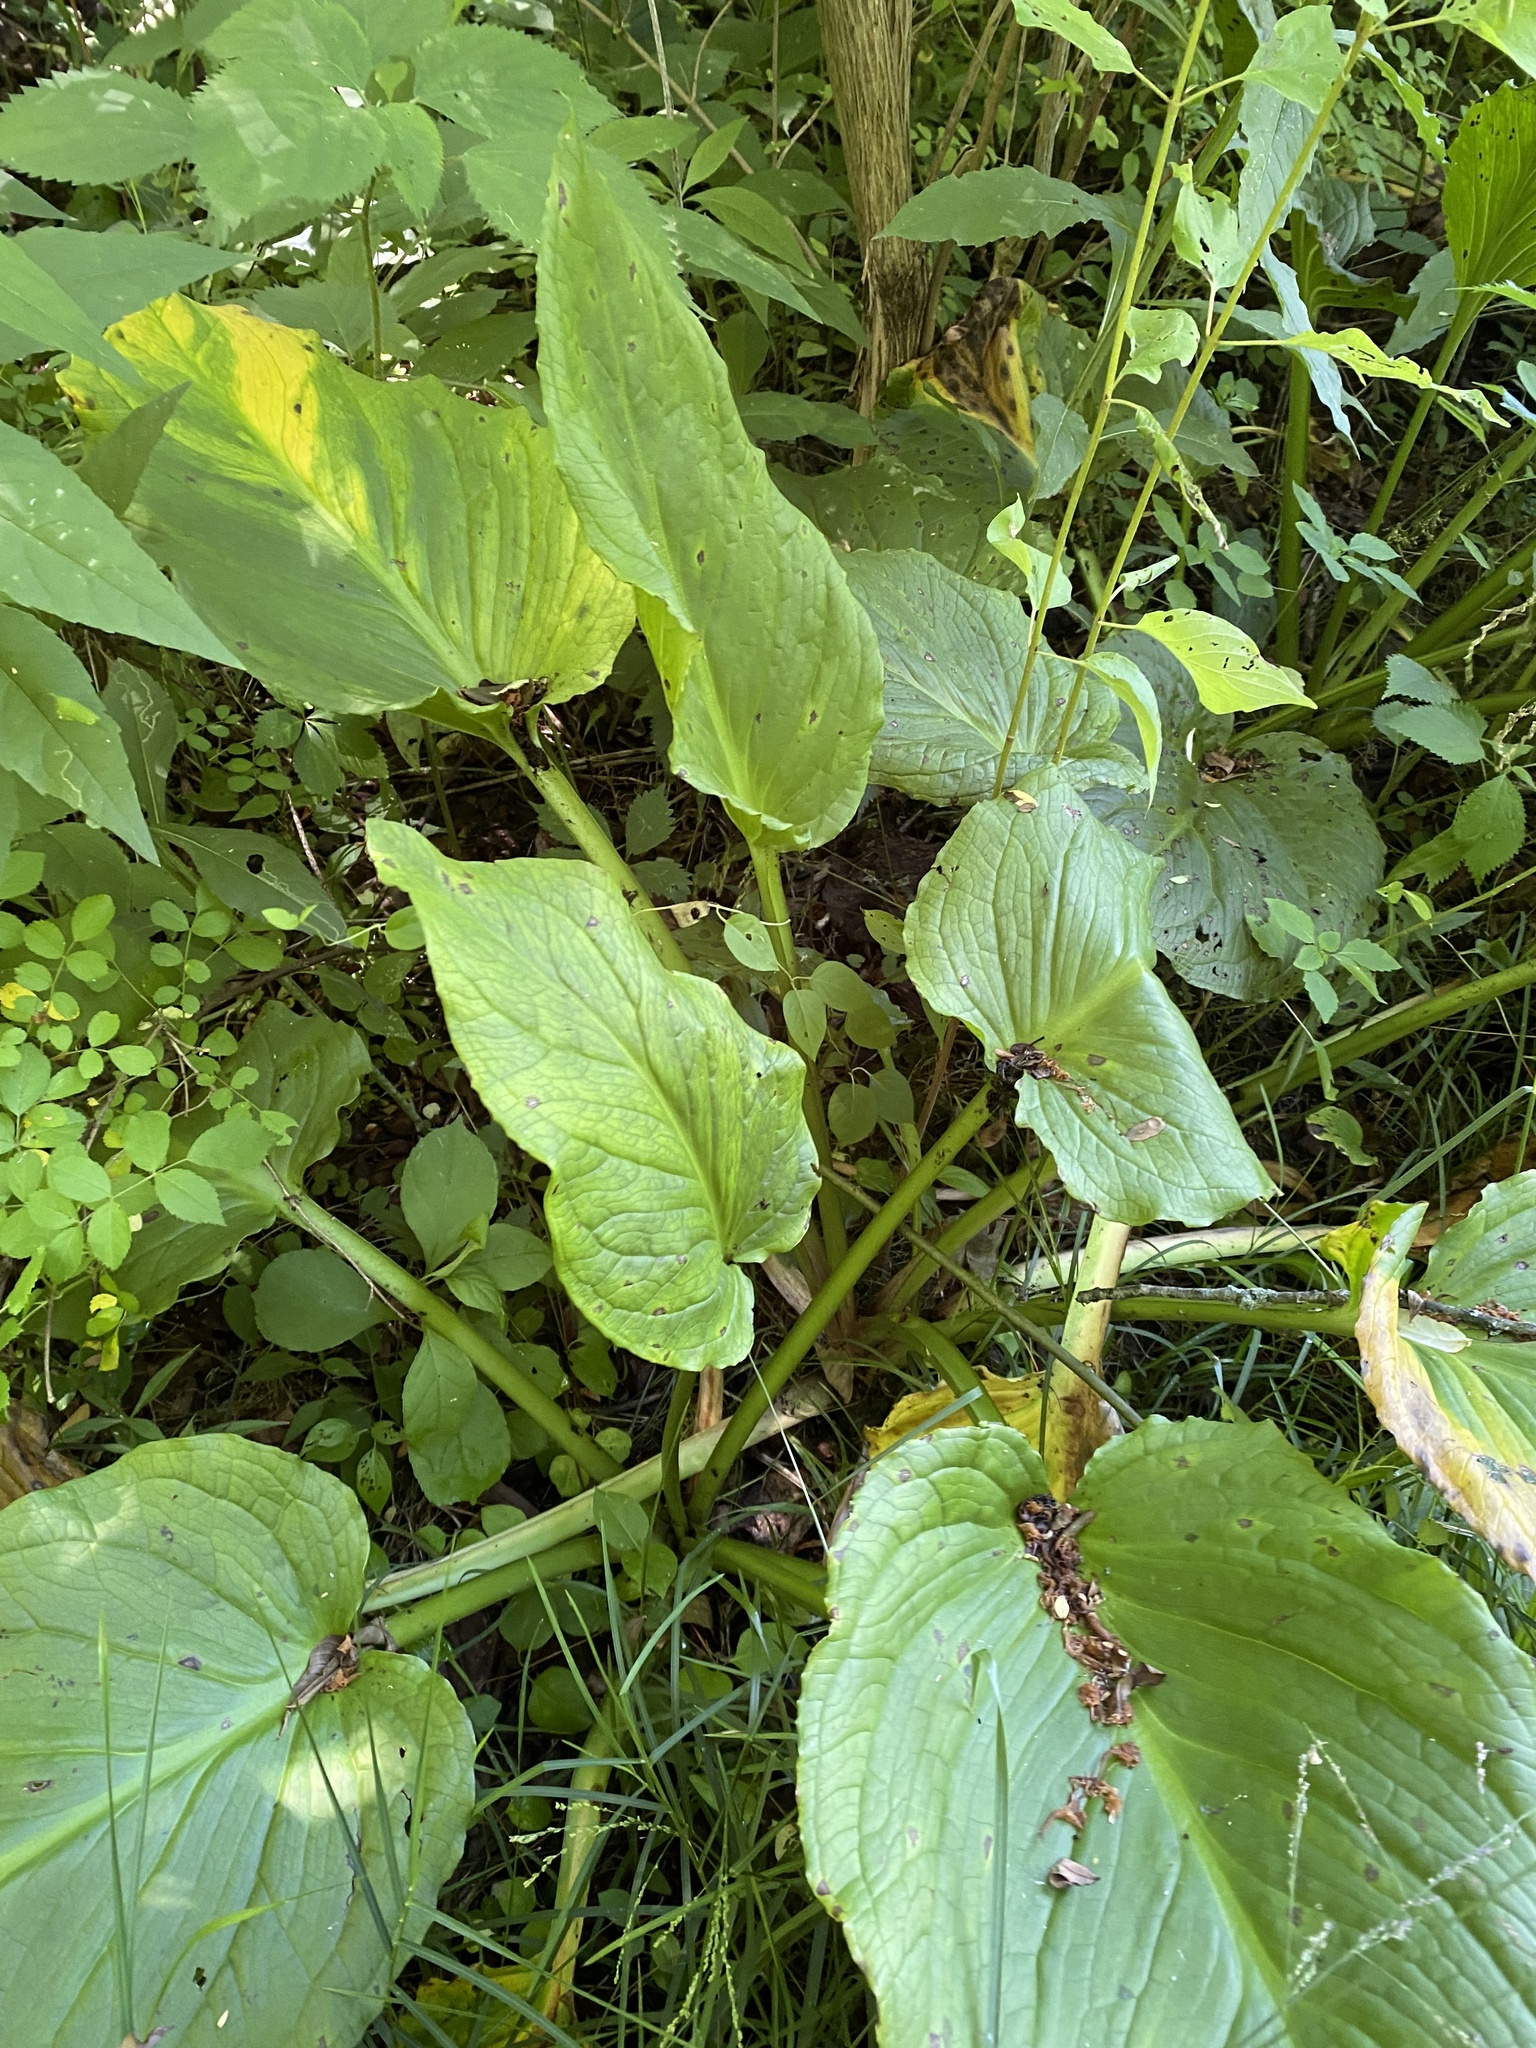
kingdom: Plantae
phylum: Tracheophyta
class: Liliopsida
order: Alismatales
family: Araceae
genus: Symplocarpus
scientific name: Symplocarpus foetidus
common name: Eastern skunk cabbage
